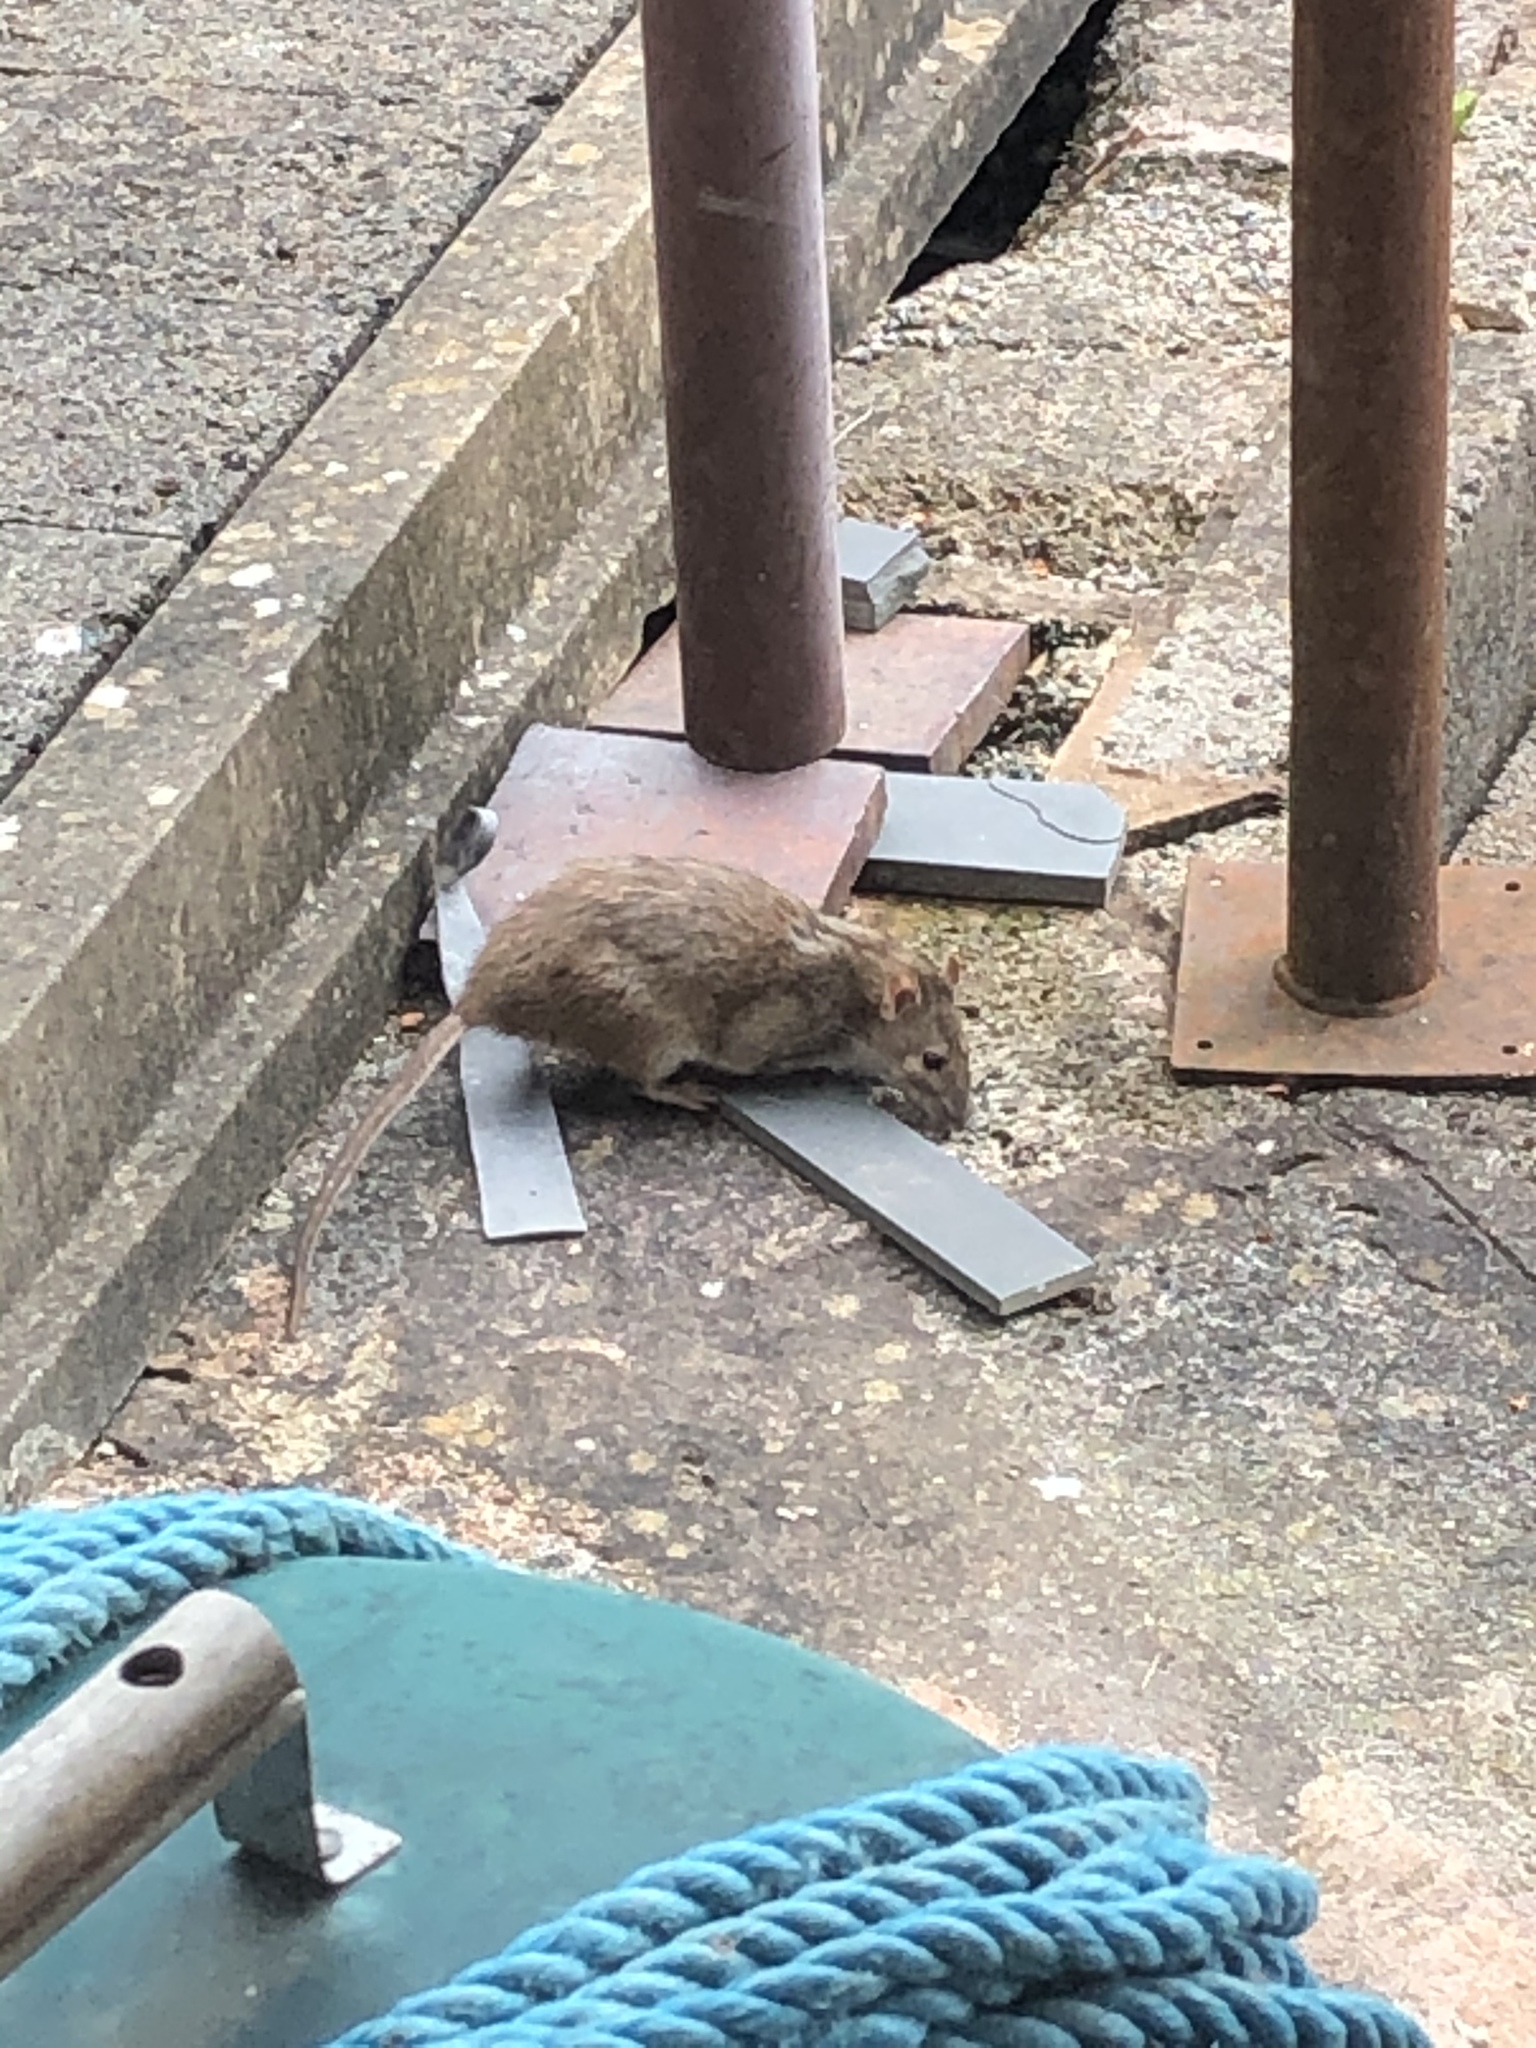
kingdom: Animalia
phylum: Chordata
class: Mammalia
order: Rodentia
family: Muridae
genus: Rattus
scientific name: Rattus norvegicus
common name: Brown rat
